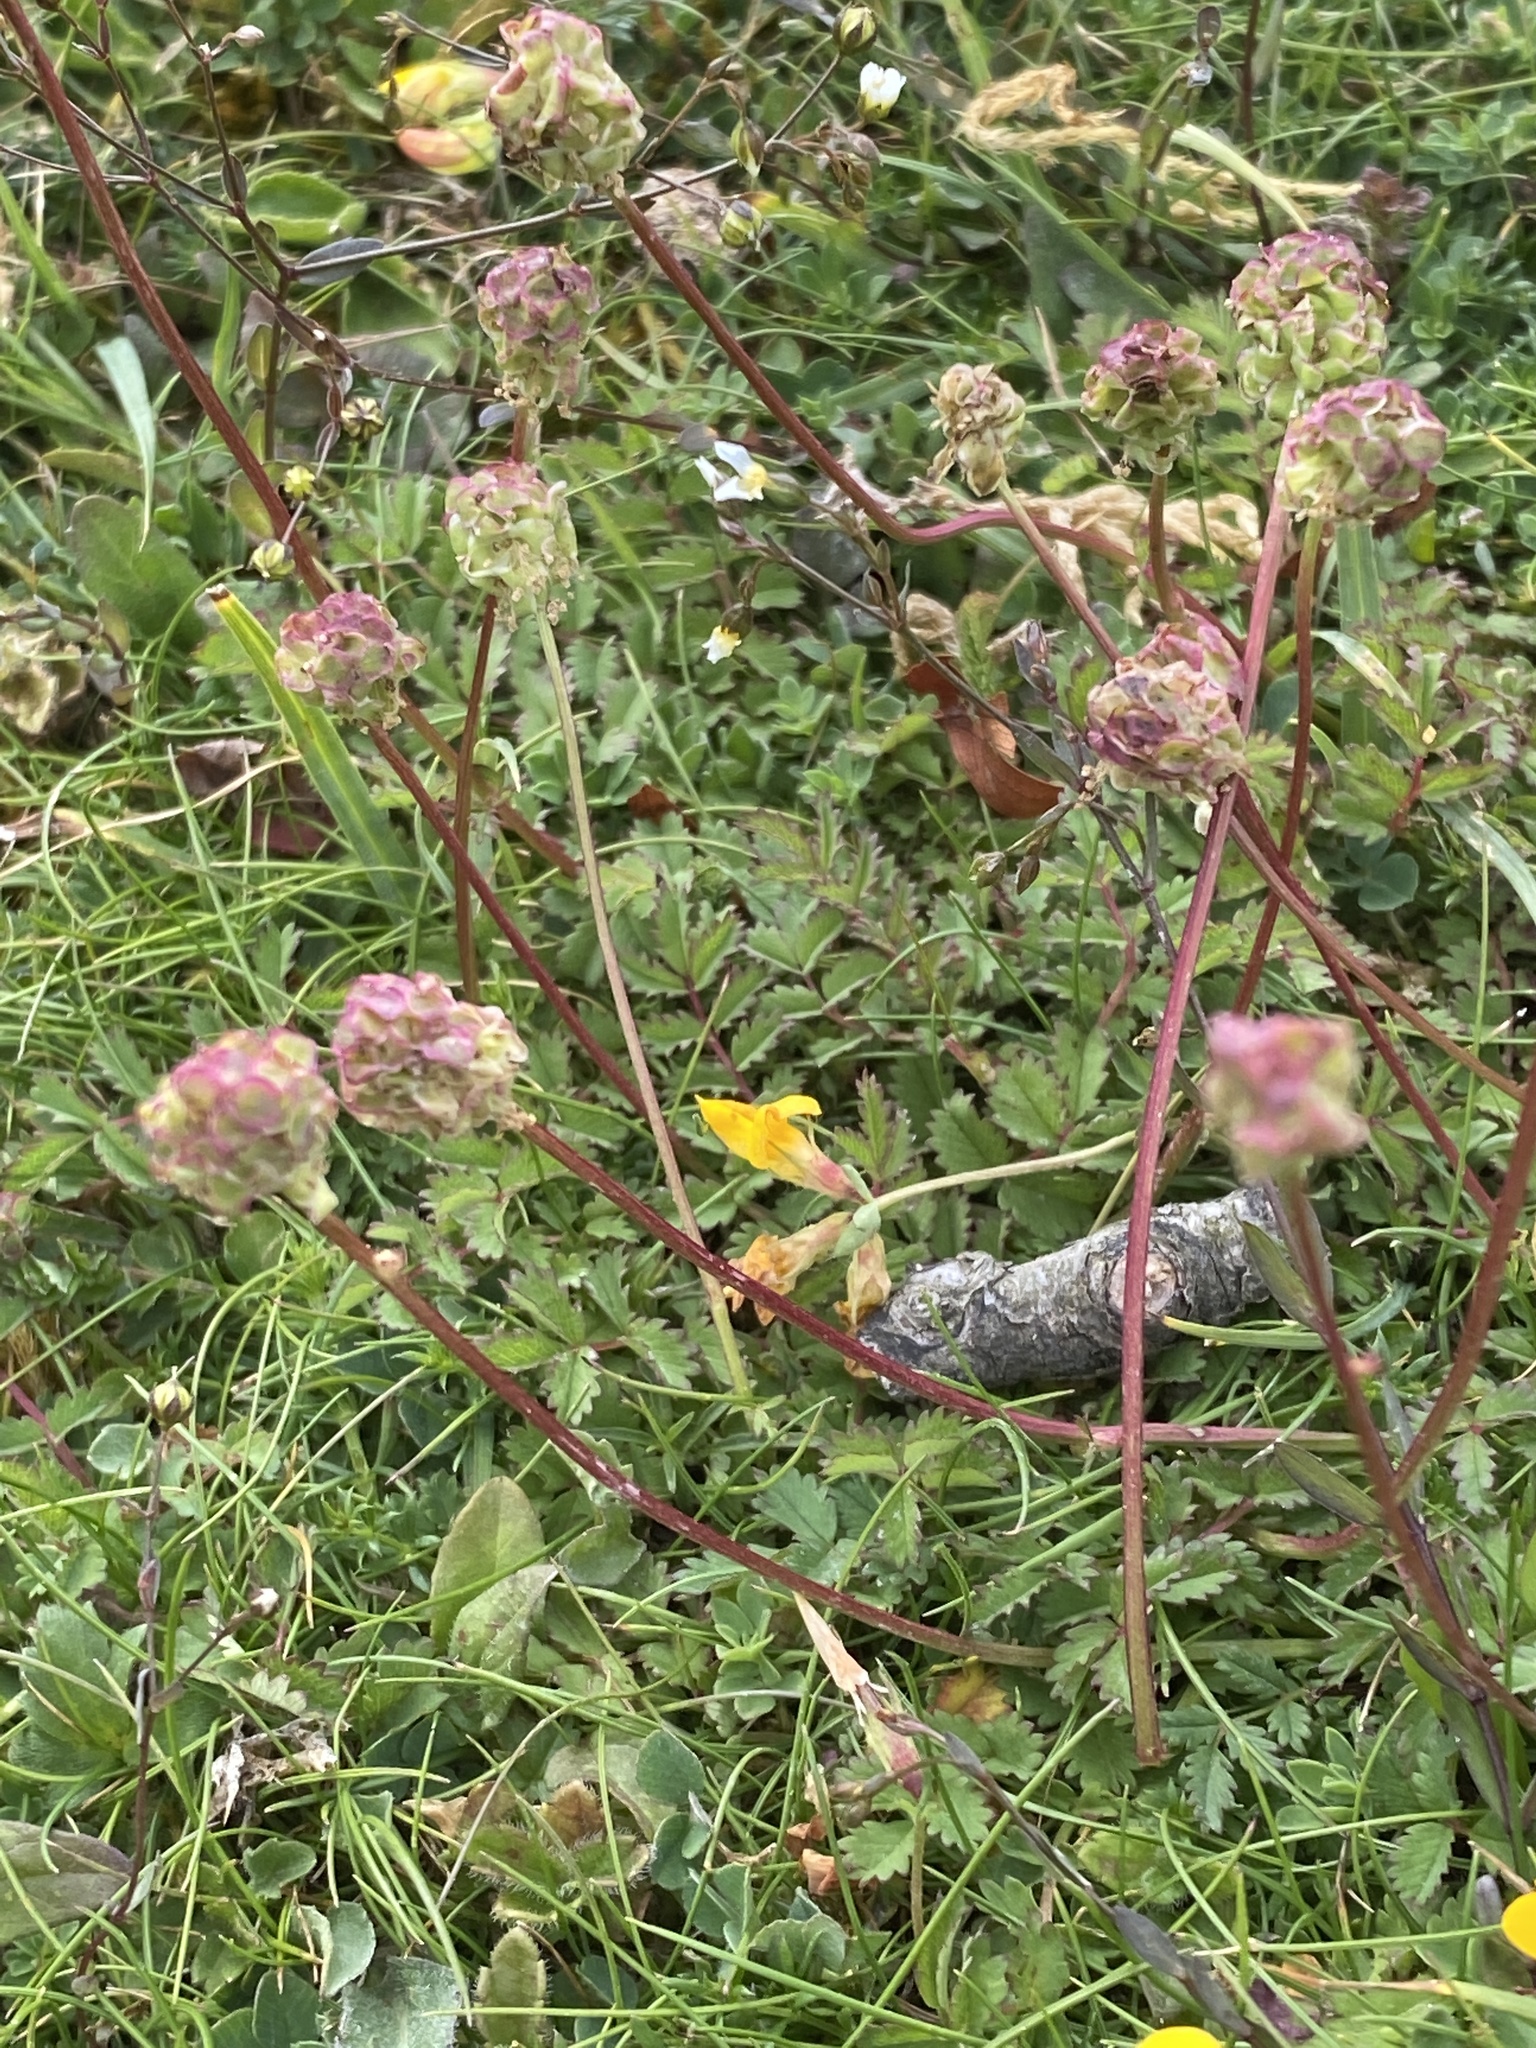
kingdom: Plantae
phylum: Tracheophyta
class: Magnoliopsida
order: Rosales
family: Rosaceae
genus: Poterium
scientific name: Poterium sanguisorba
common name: Salad burnet
